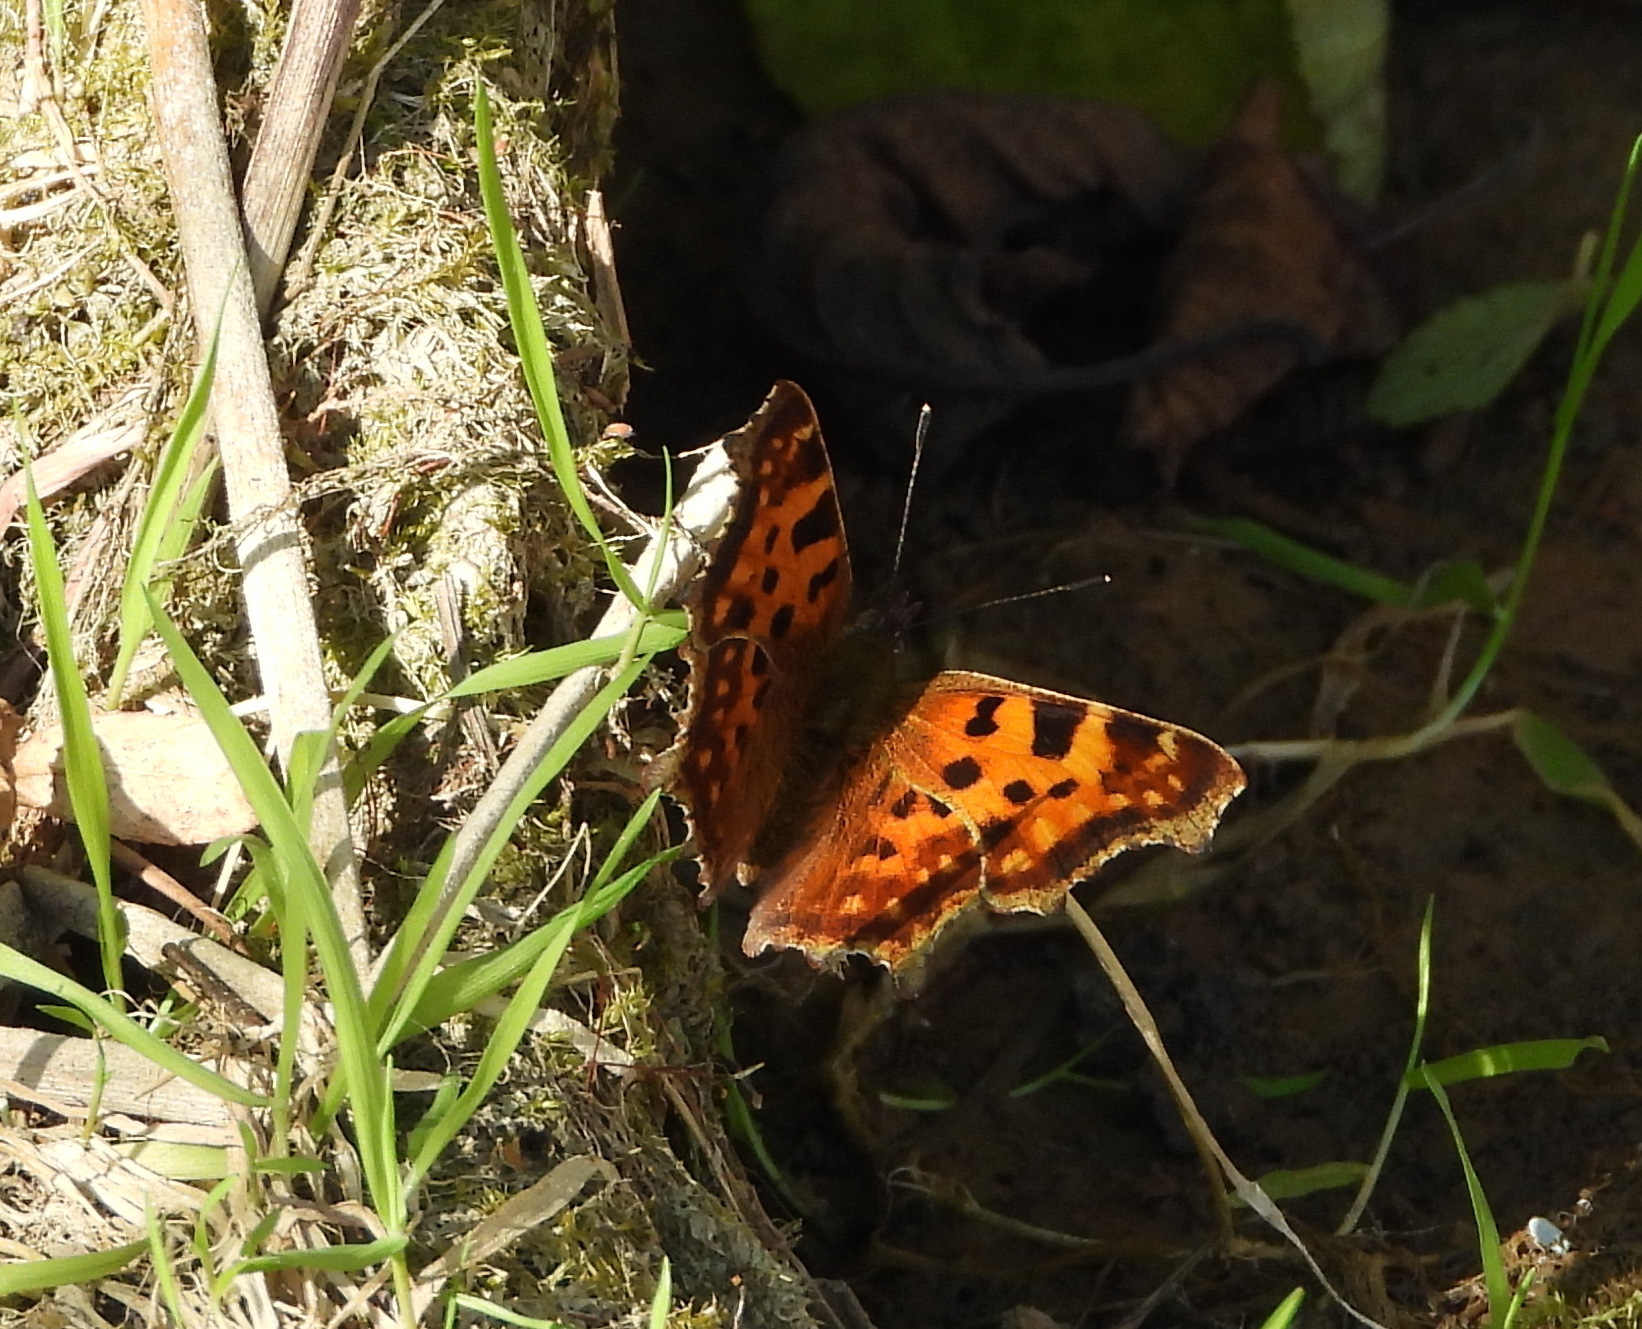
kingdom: Animalia
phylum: Arthropoda
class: Insecta
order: Lepidoptera
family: Nymphalidae
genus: Polygonia
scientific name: Polygonia c-album
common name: Comma
